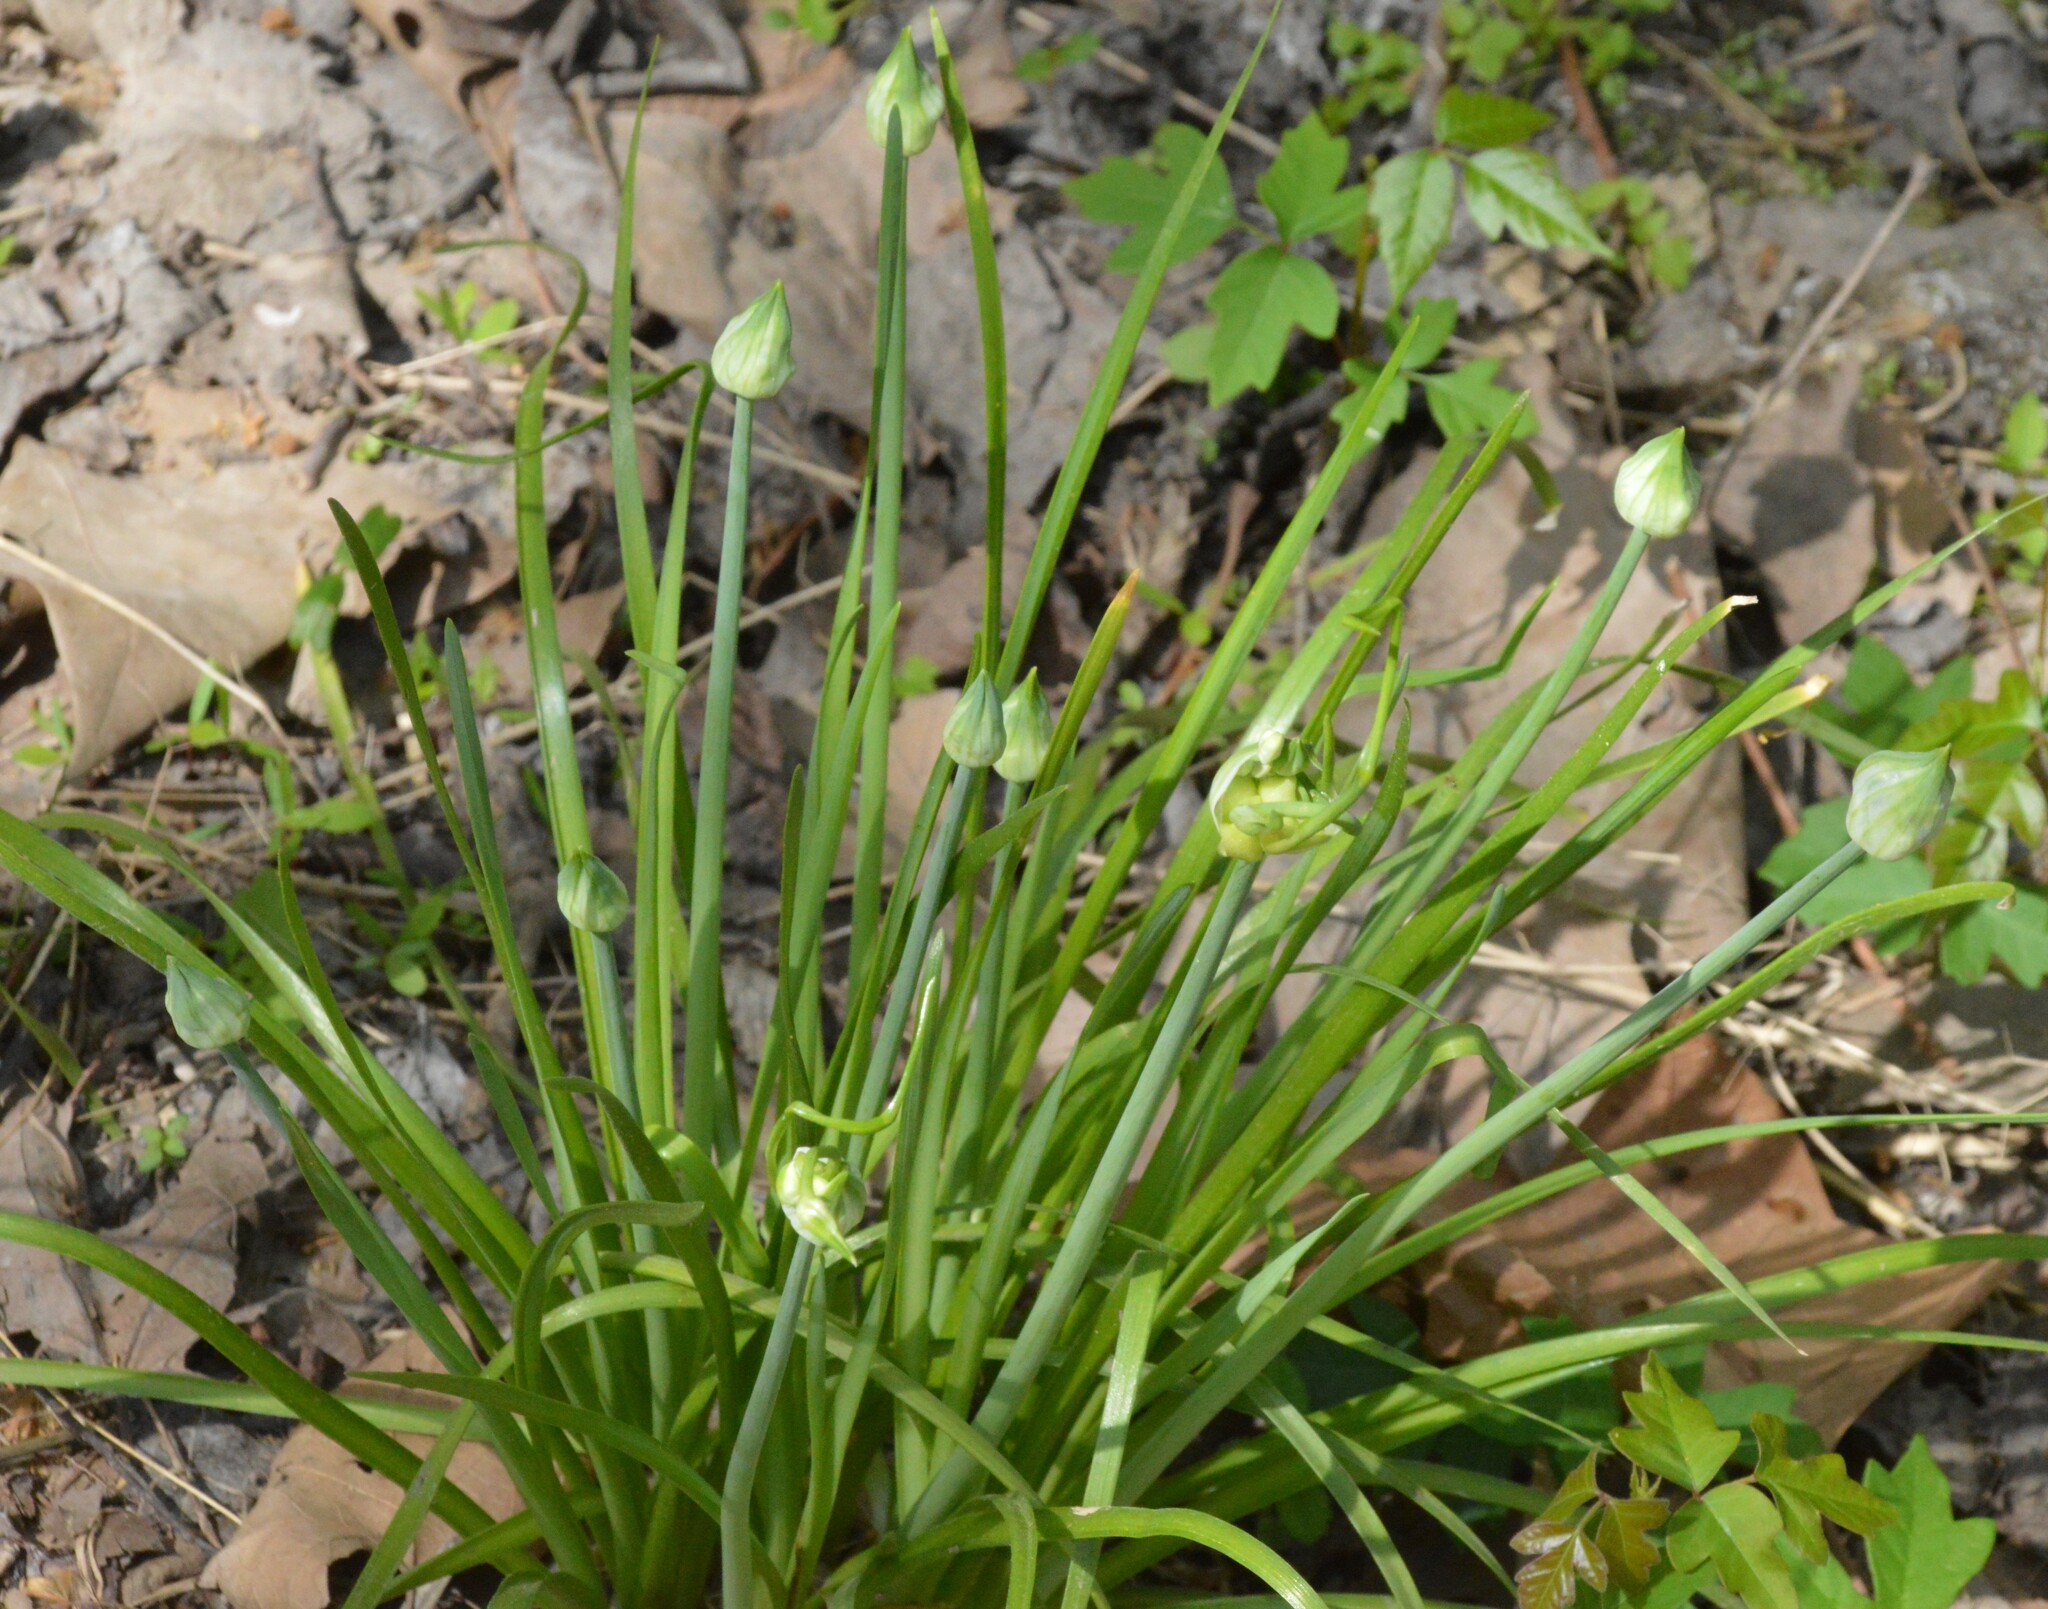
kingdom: Plantae
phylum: Tracheophyta
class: Liliopsida
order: Asparagales
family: Amaryllidaceae
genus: Allium
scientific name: Allium canadense
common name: Meadow garlic
